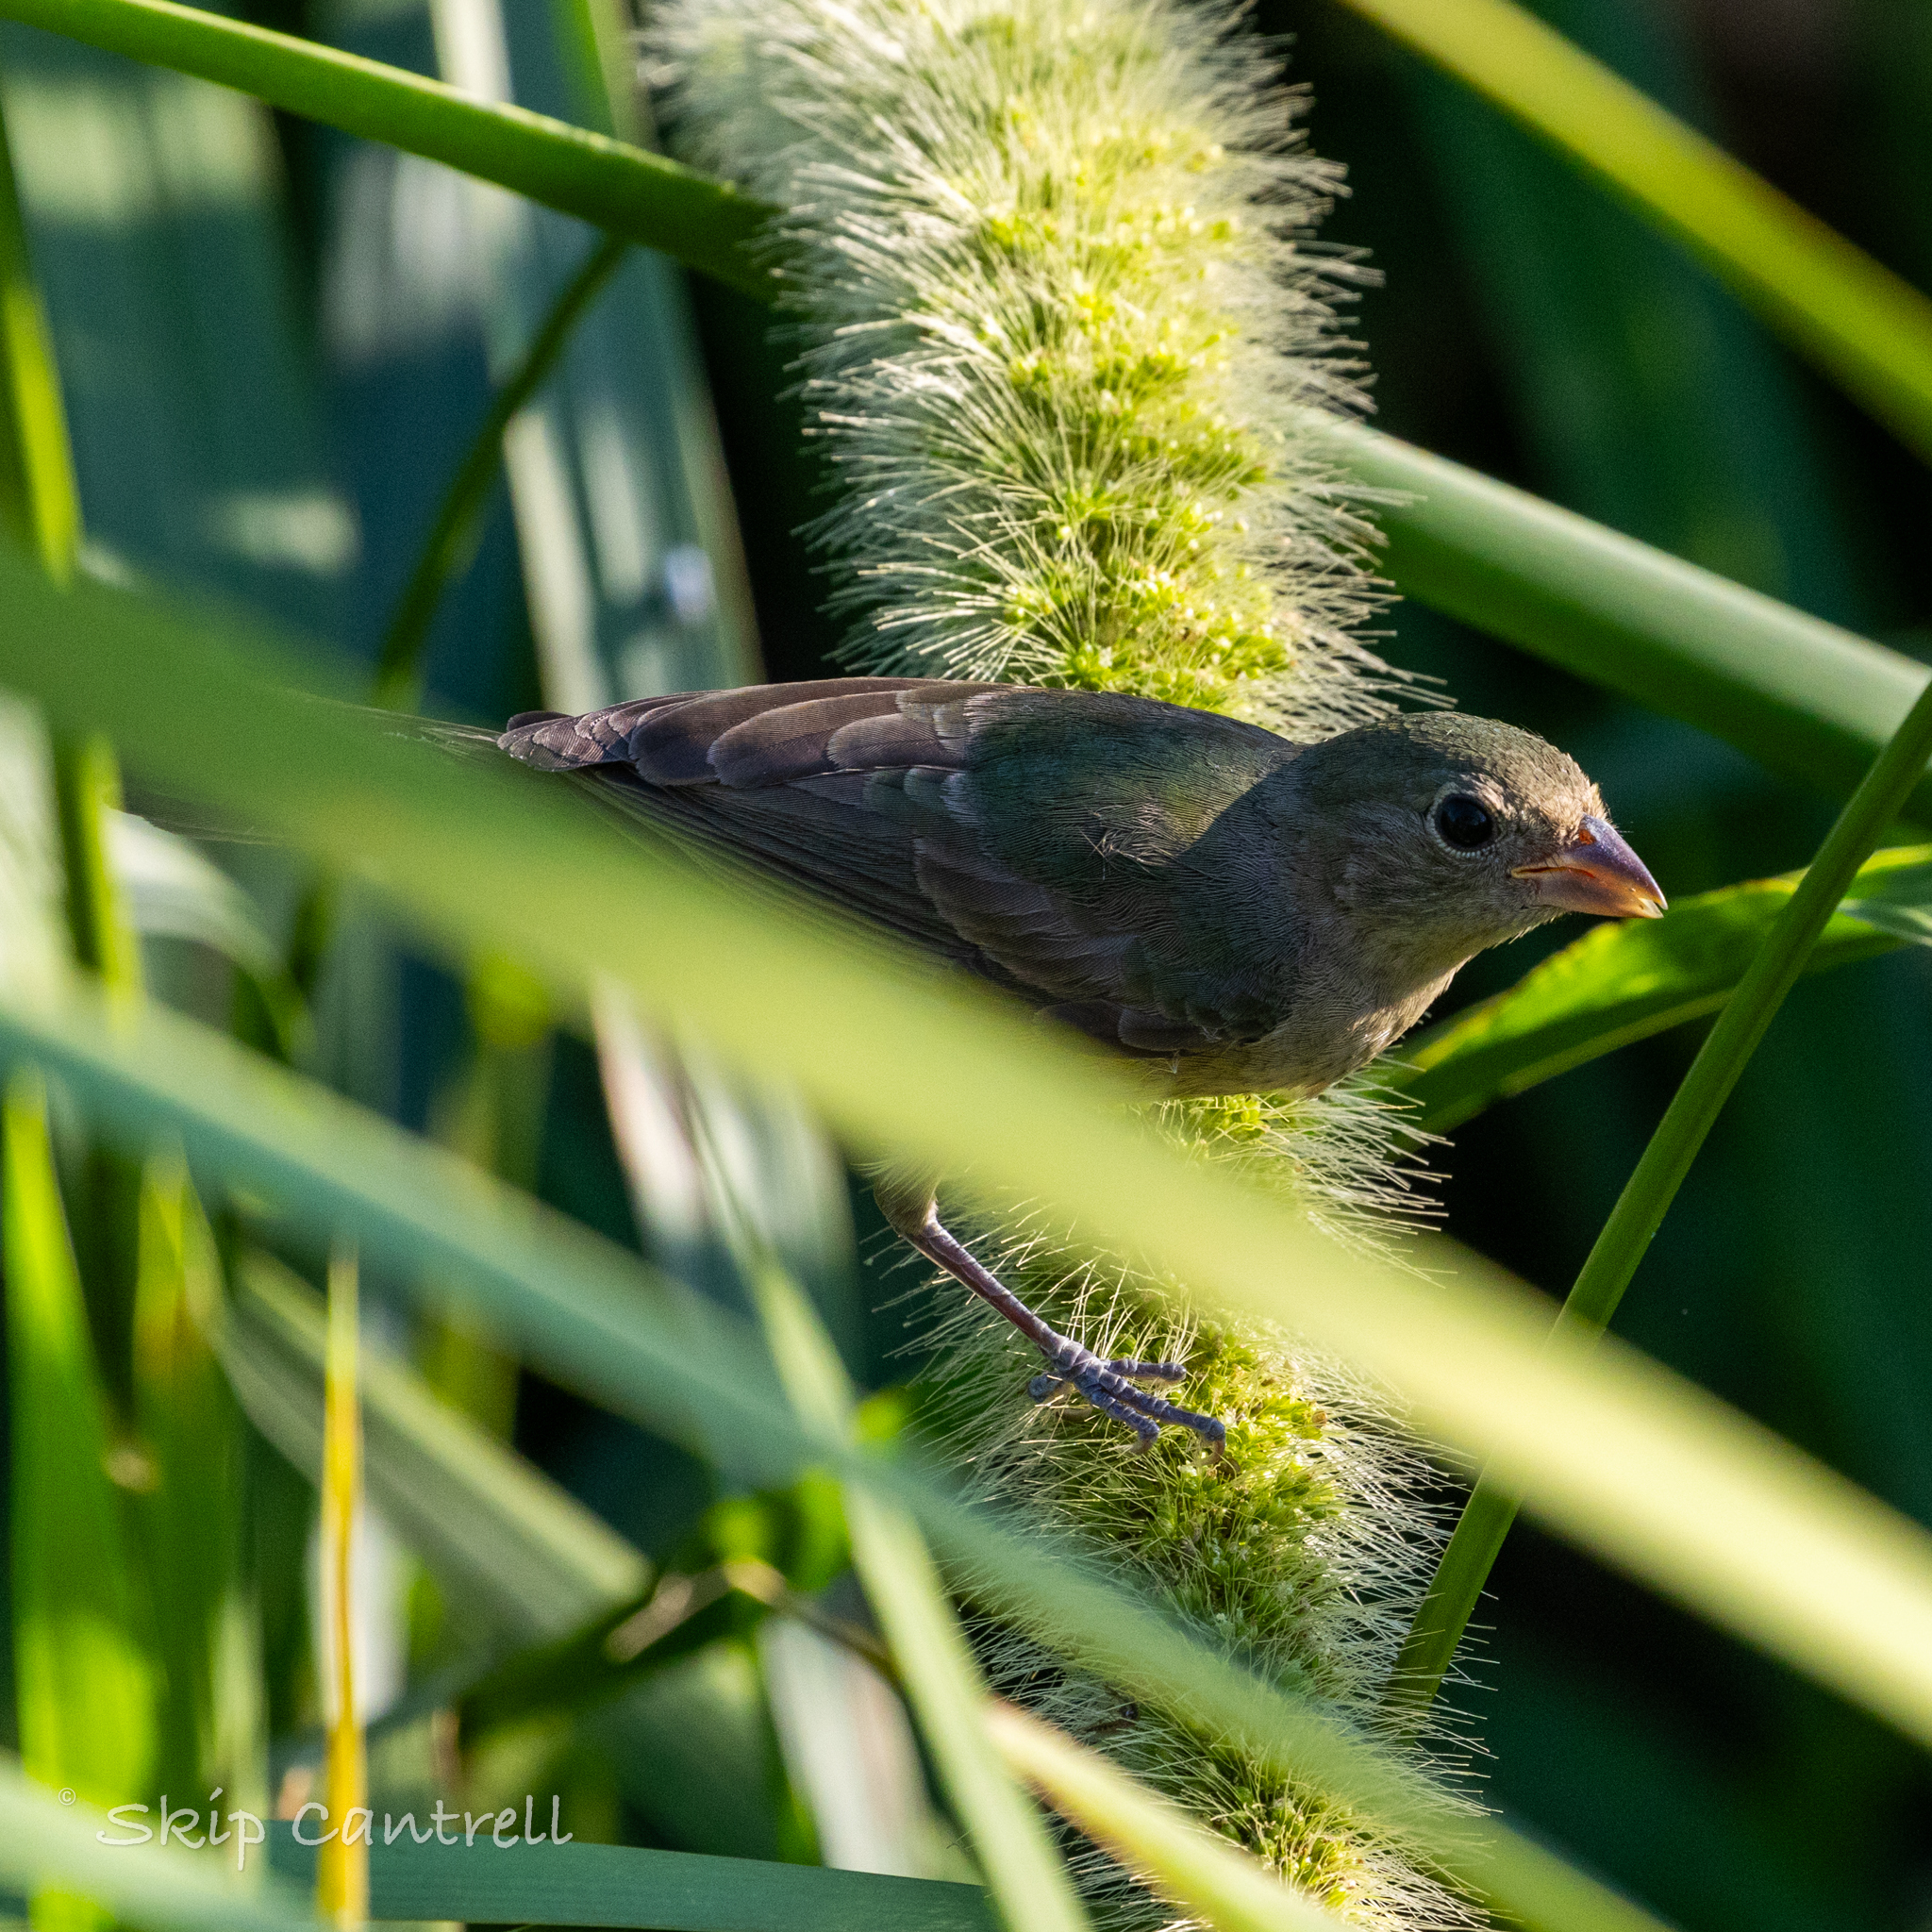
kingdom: Animalia
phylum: Chordata
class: Aves
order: Passeriformes
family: Cardinalidae
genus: Passerina
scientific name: Passerina ciris
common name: Painted bunting
